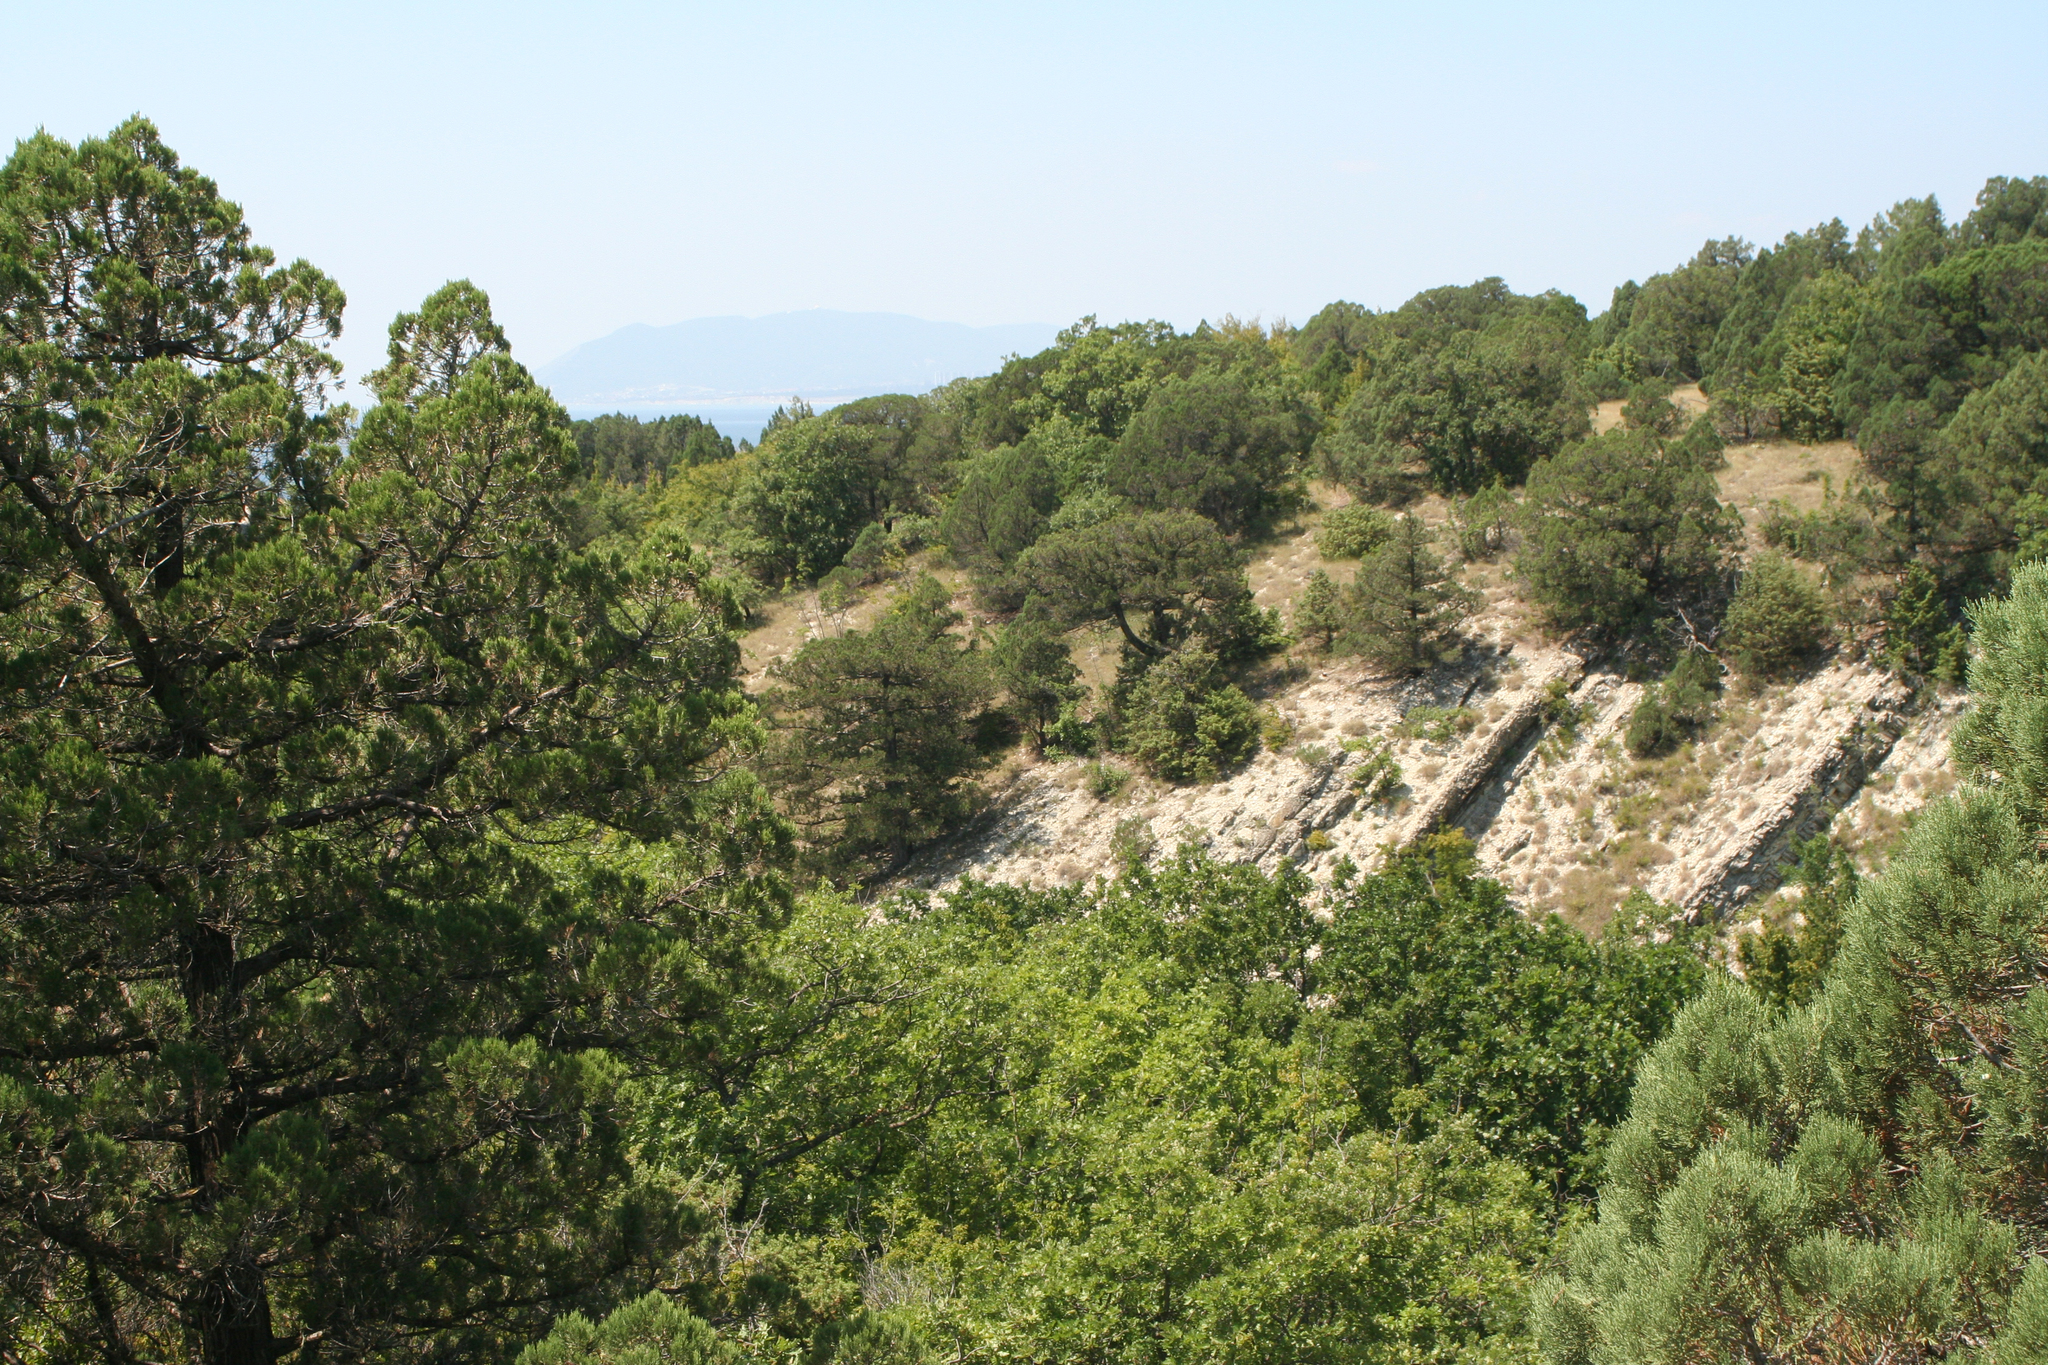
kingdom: Plantae
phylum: Tracheophyta
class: Pinopsida
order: Pinales
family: Cupressaceae
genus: Juniperus
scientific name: Juniperus excelsa
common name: Crimean juniper
